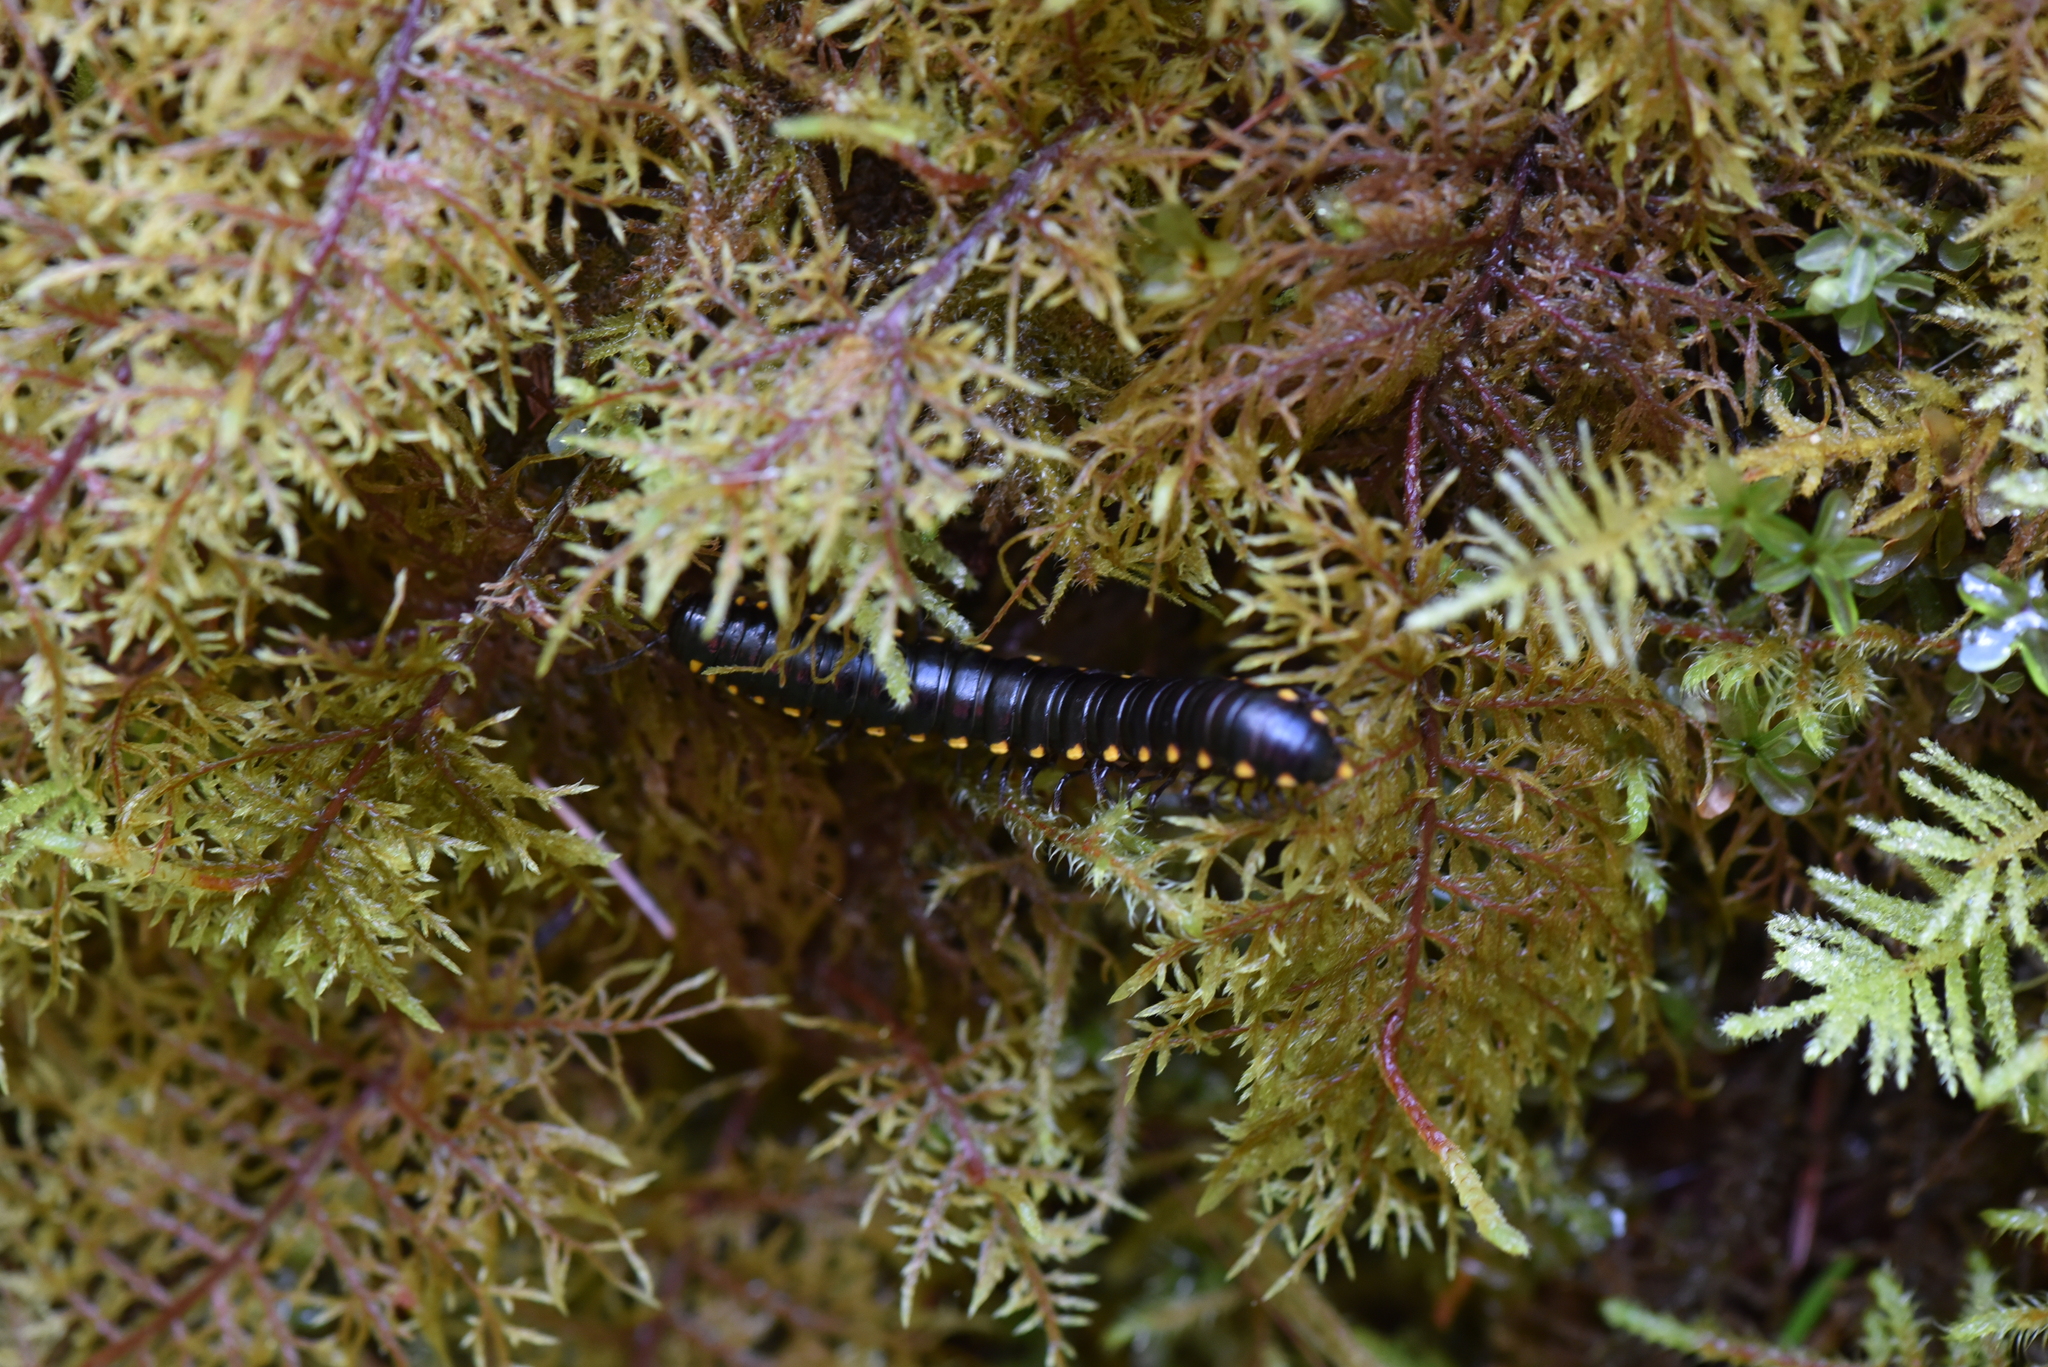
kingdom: Animalia
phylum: Arthropoda
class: Diplopoda
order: Polydesmida
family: Xystodesmidae
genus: Harpaphe
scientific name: Harpaphe haydeniana
